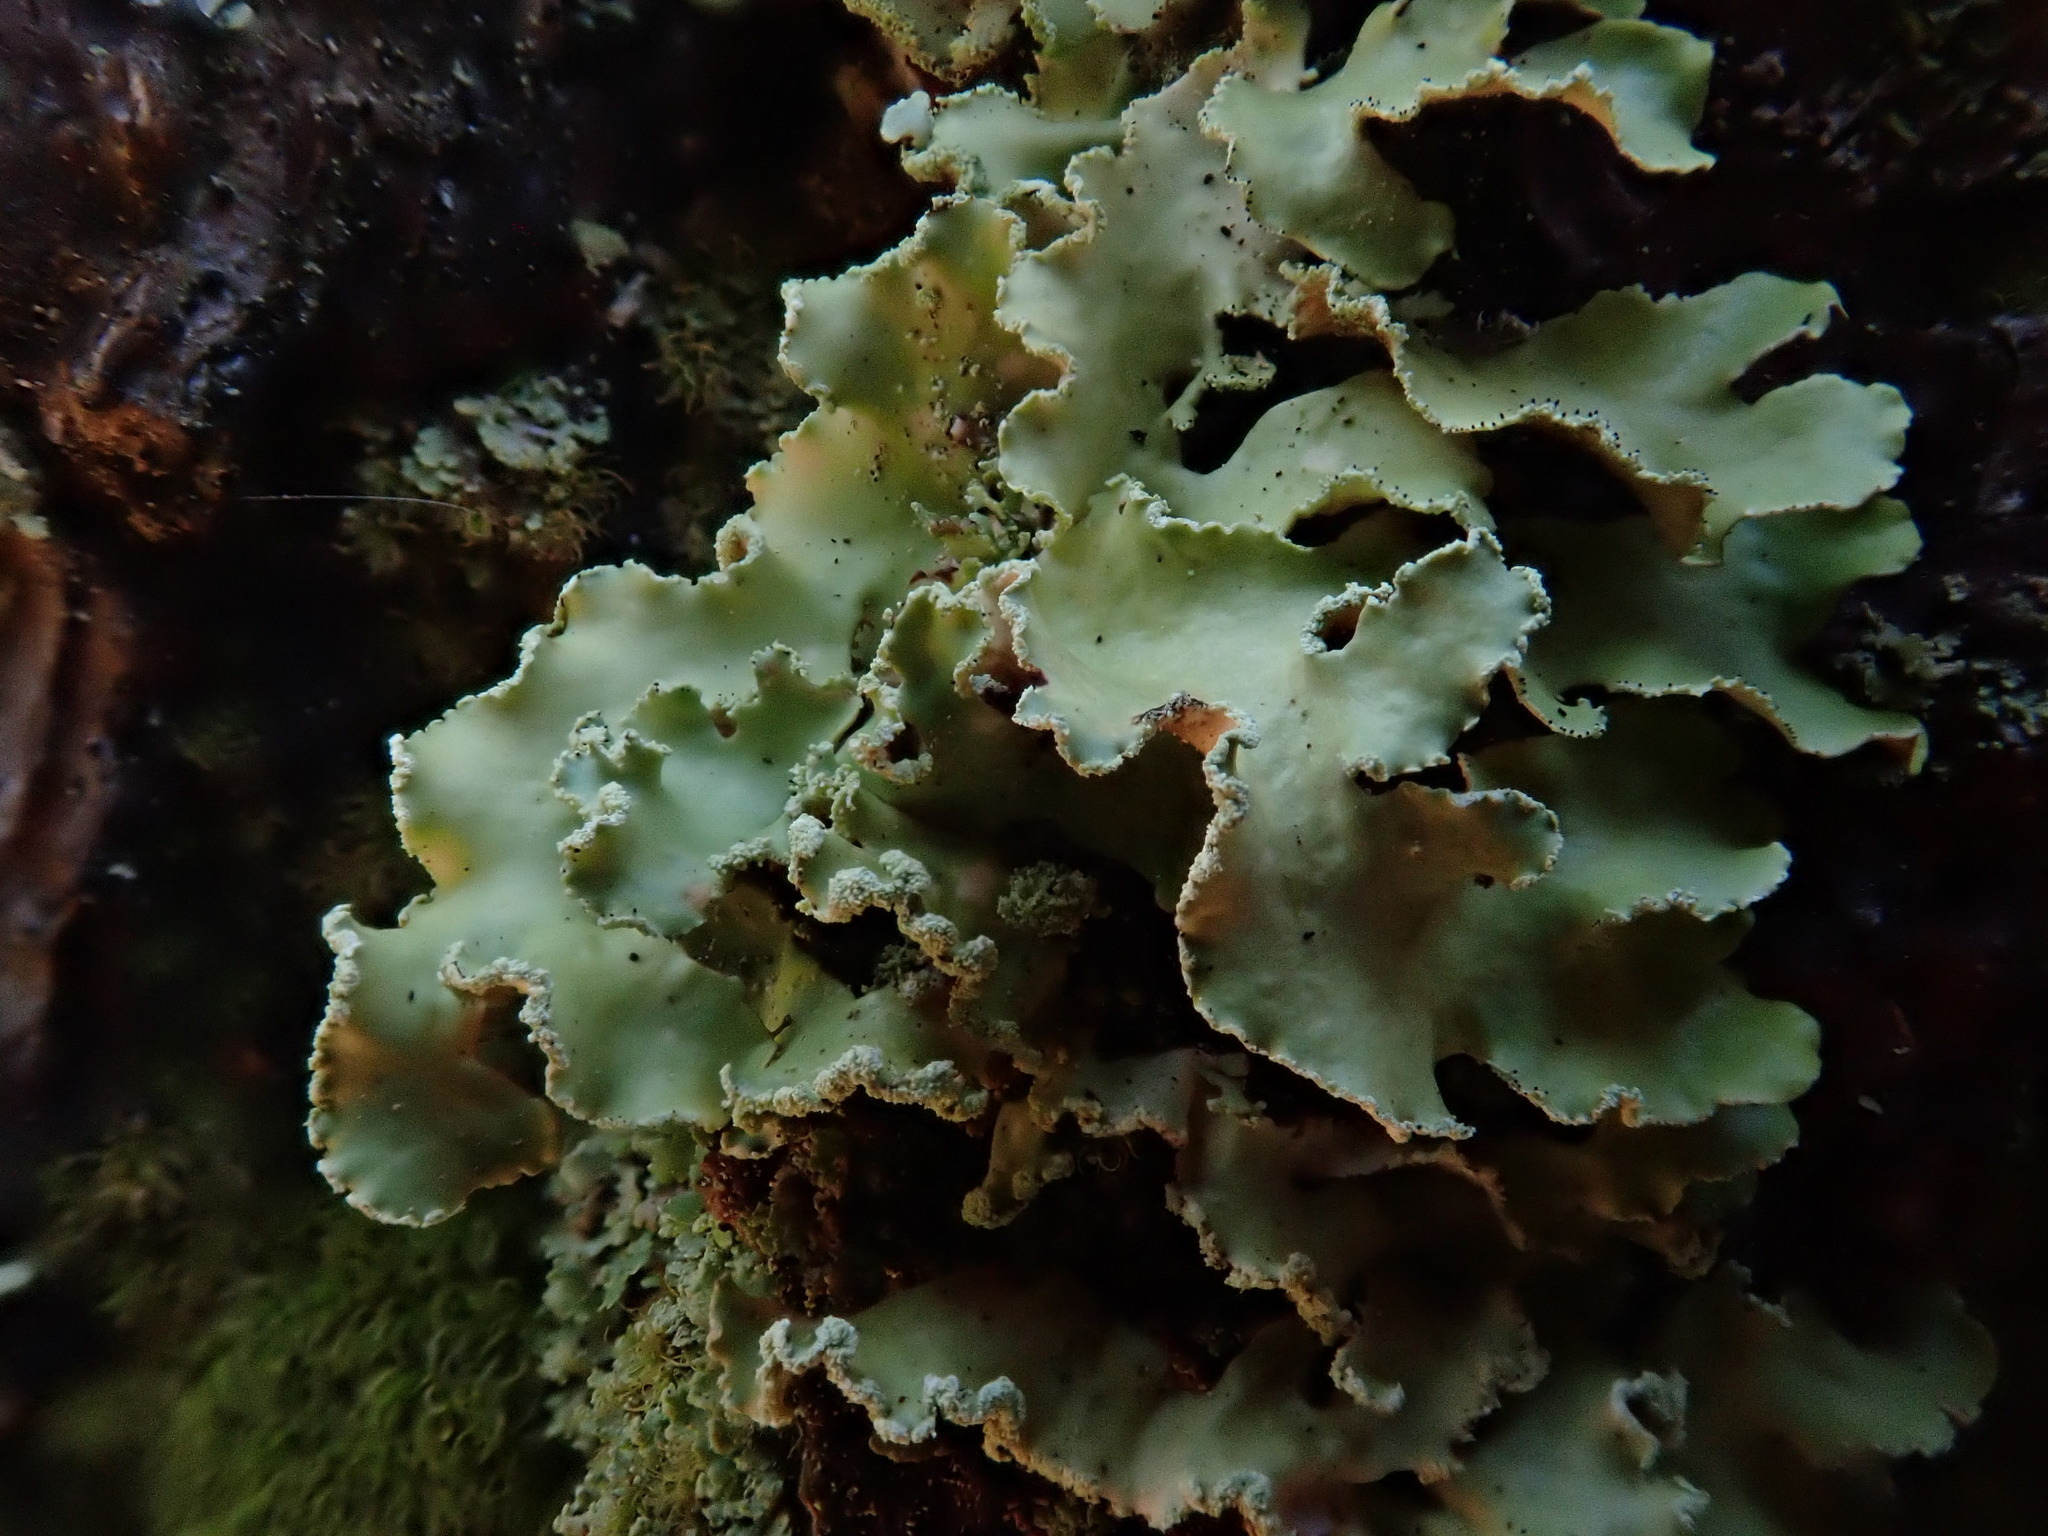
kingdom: Fungi
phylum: Ascomycota
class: Lecanoromycetes
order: Lecanorales
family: Parmeliaceae
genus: Usnocetraria
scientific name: Usnocetraria oakesiana
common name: Yellow ribbon lichen
